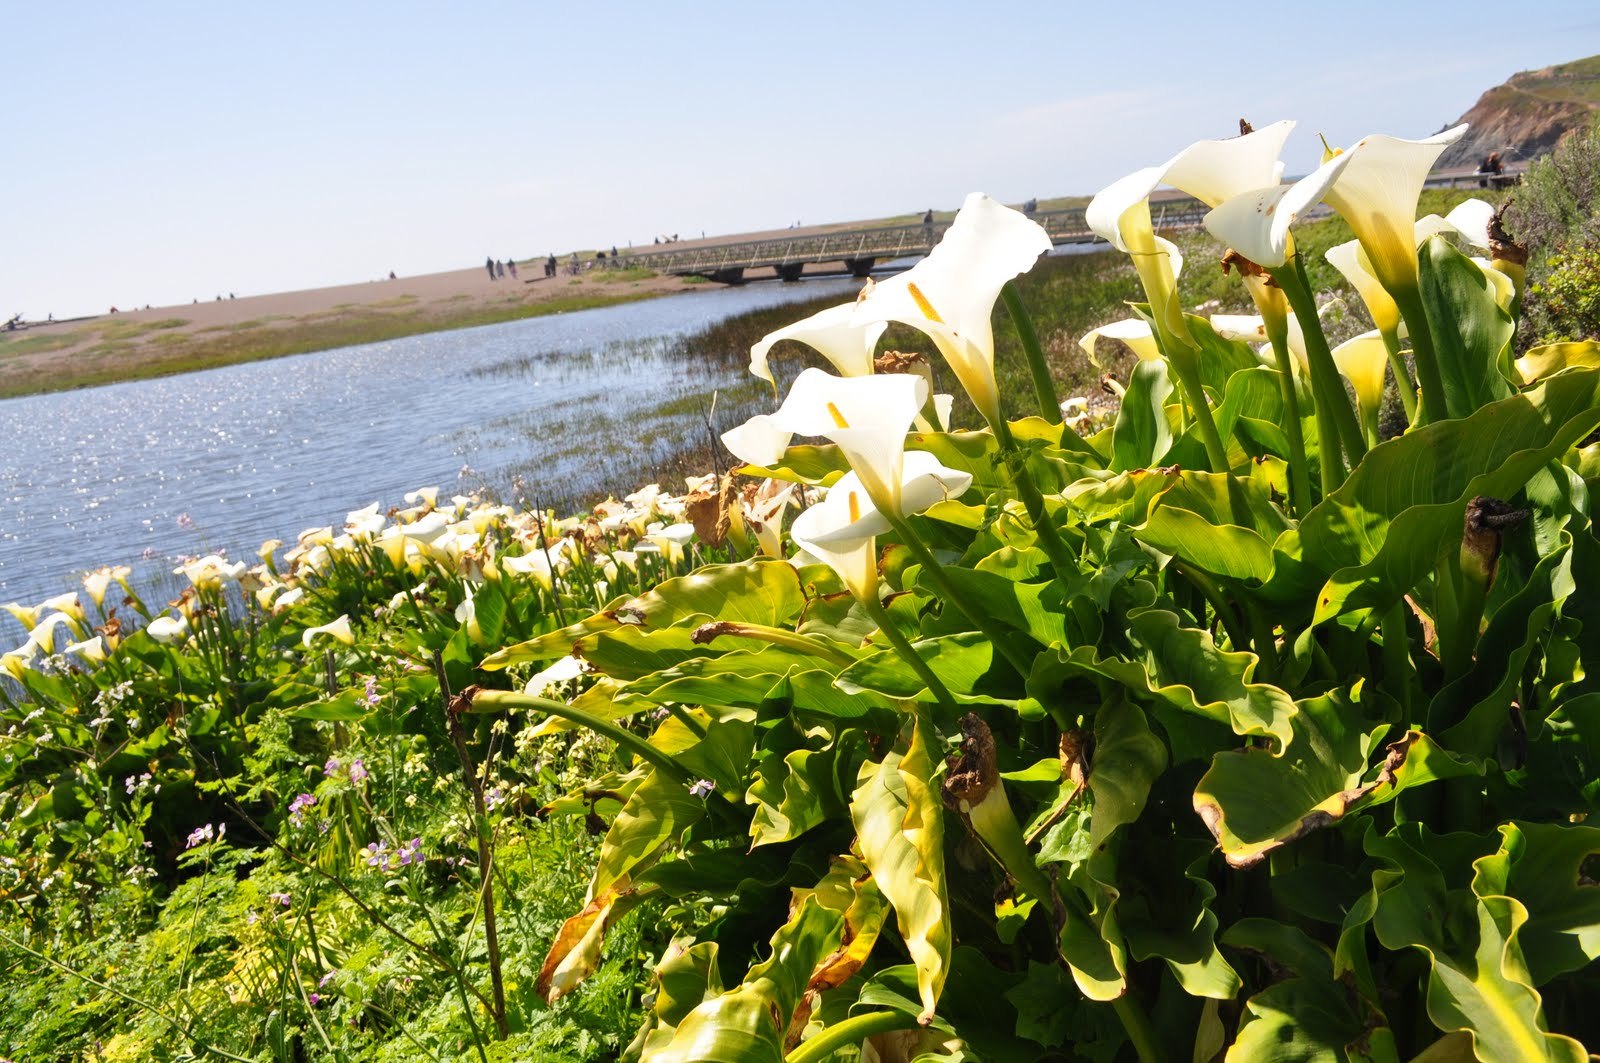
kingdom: Plantae
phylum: Tracheophyta
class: Liliopsida
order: Alismatales
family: Araceae
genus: Zantedeschia
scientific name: Zantedeschia aethiopica
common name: Altar-lily
